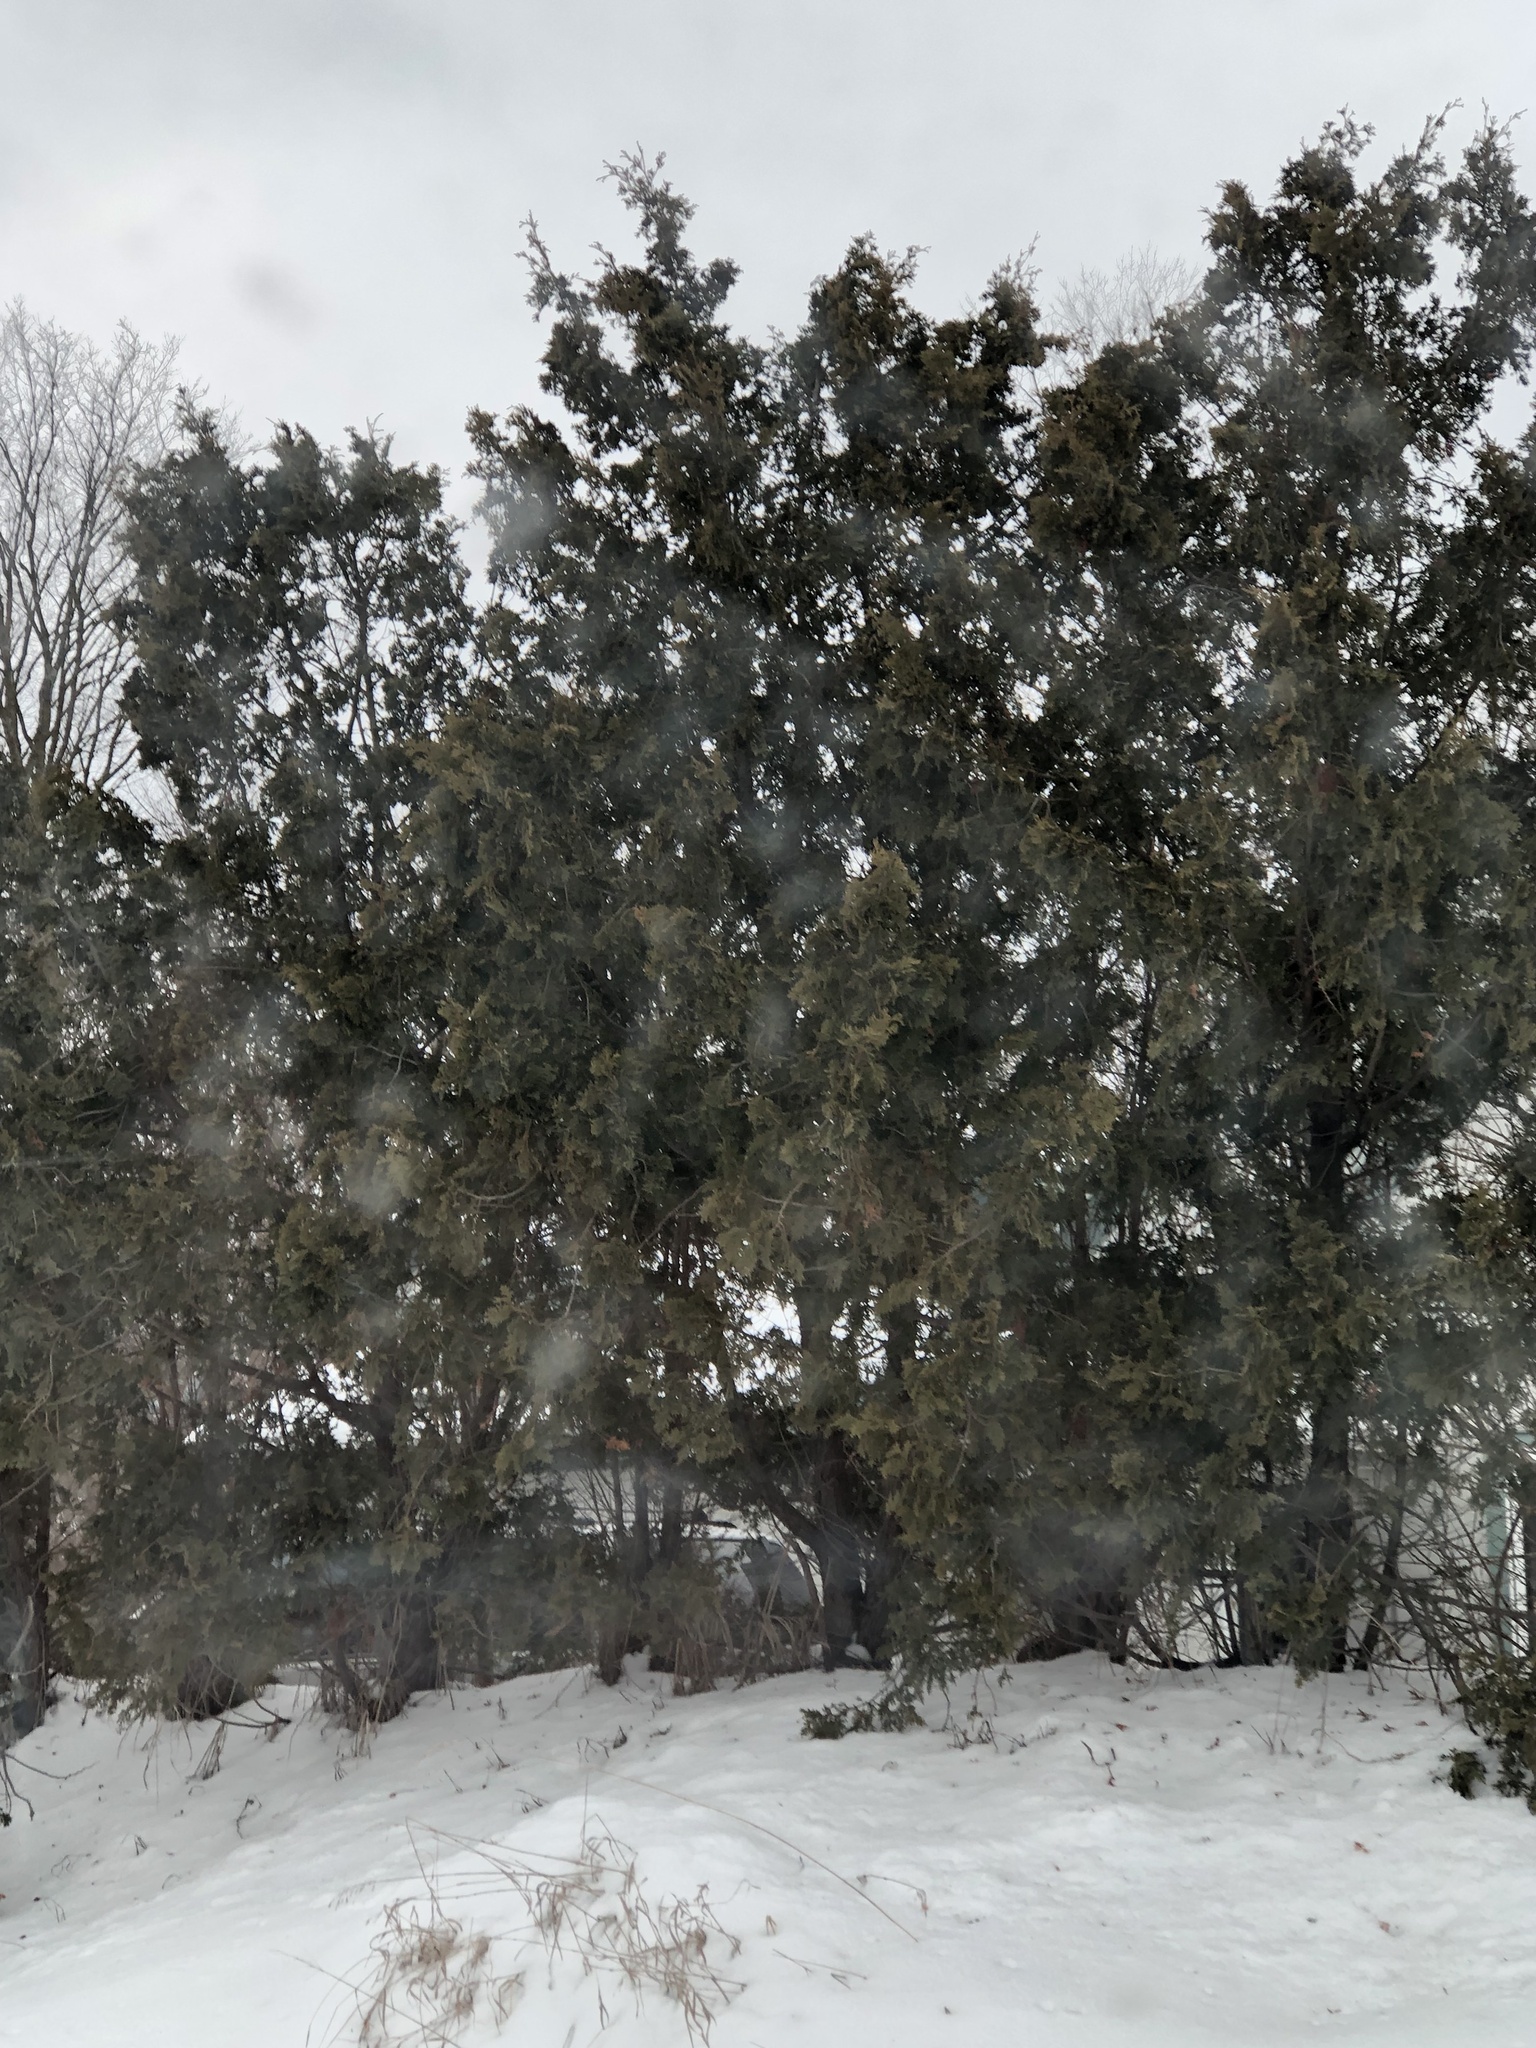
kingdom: Plantae
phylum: Tracheophyta
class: Pinopsida
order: Pinales
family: Cupressaceae
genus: Thuja
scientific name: Thuja occidentalis
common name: Northern white-cedar
